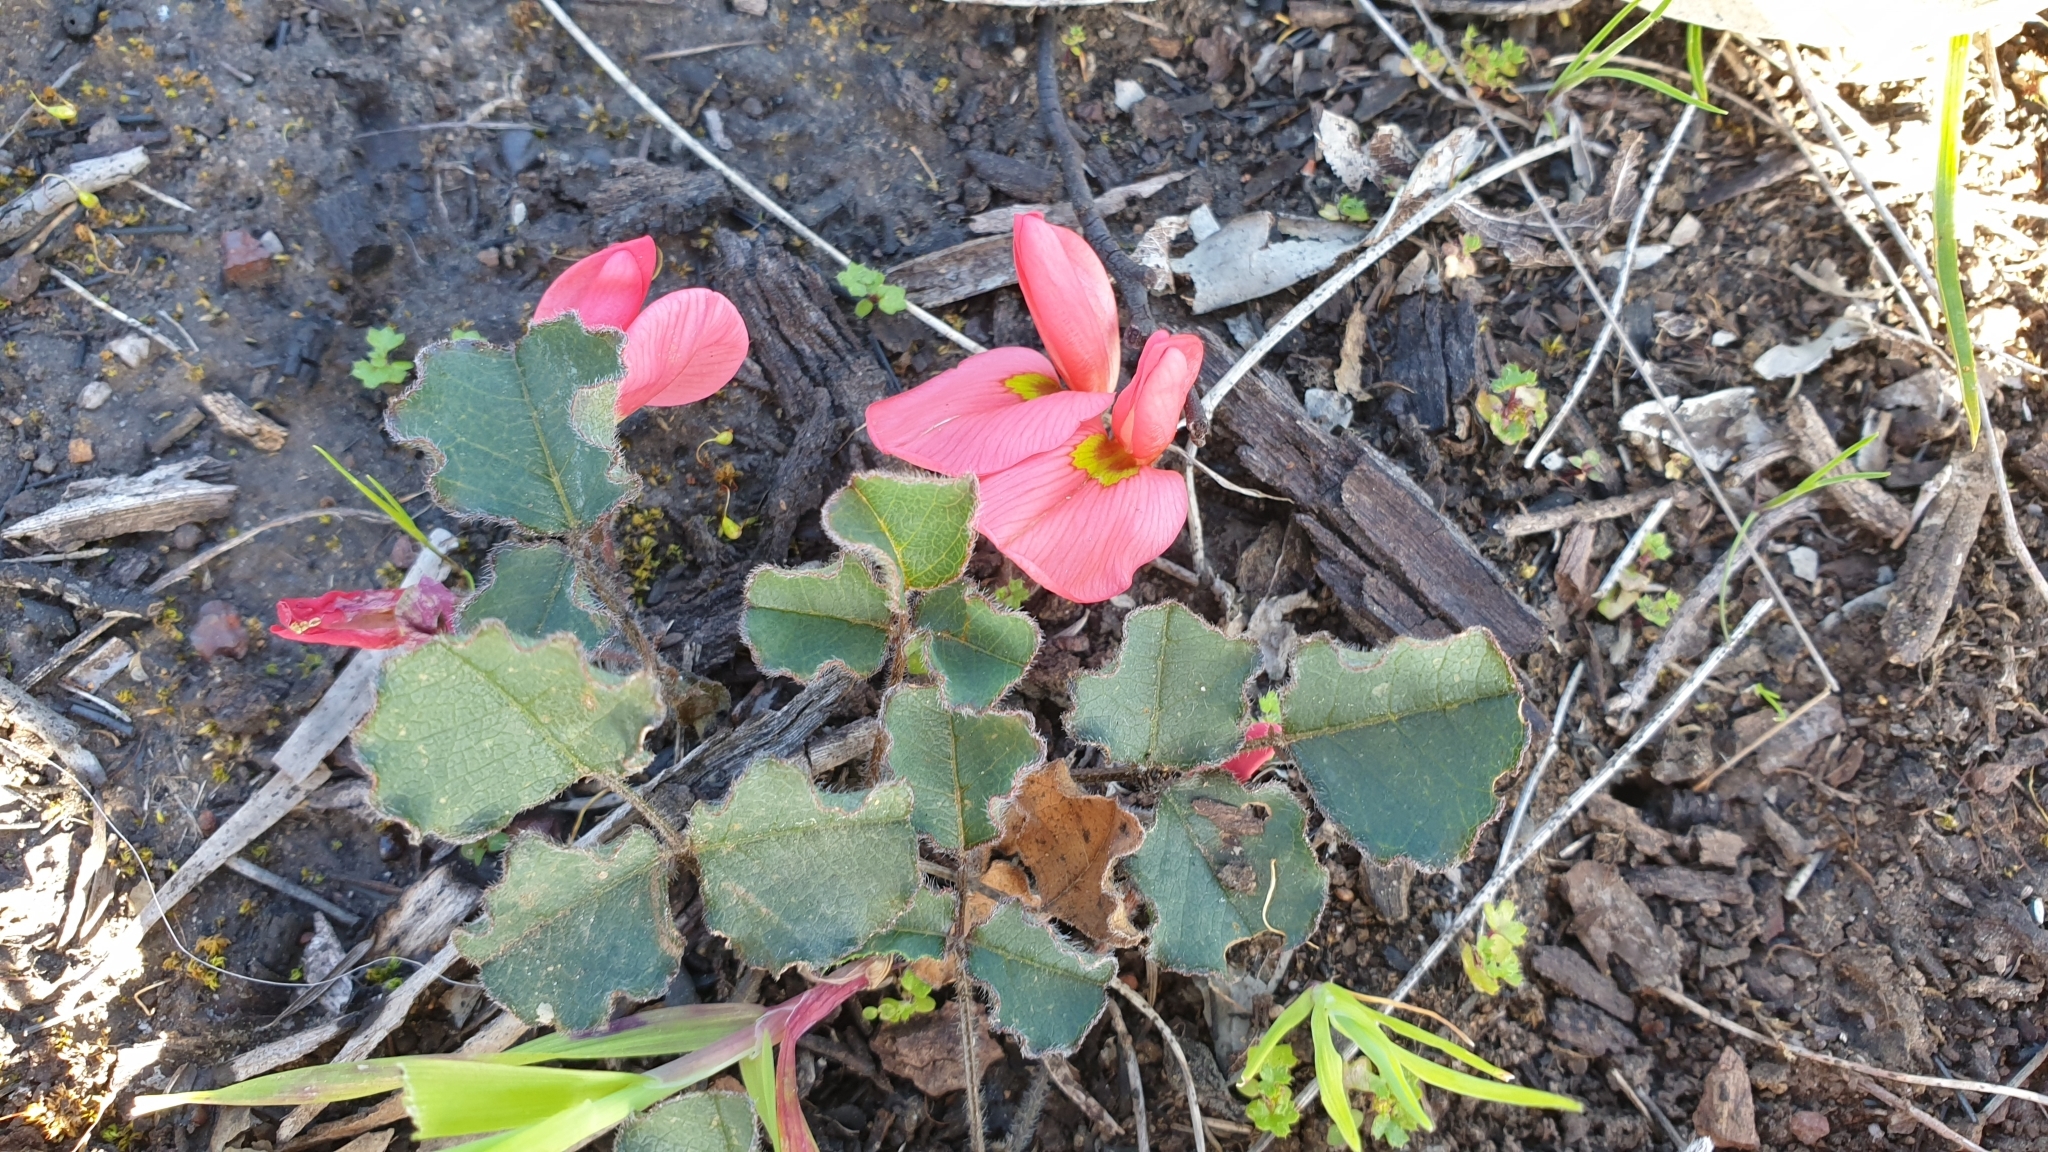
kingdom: Plantae
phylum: Tracheophyta
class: Magnoliopsida
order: Fabales
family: Fabaceae
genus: Kennedia
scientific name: Kennedia prostrata
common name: Running-postman
